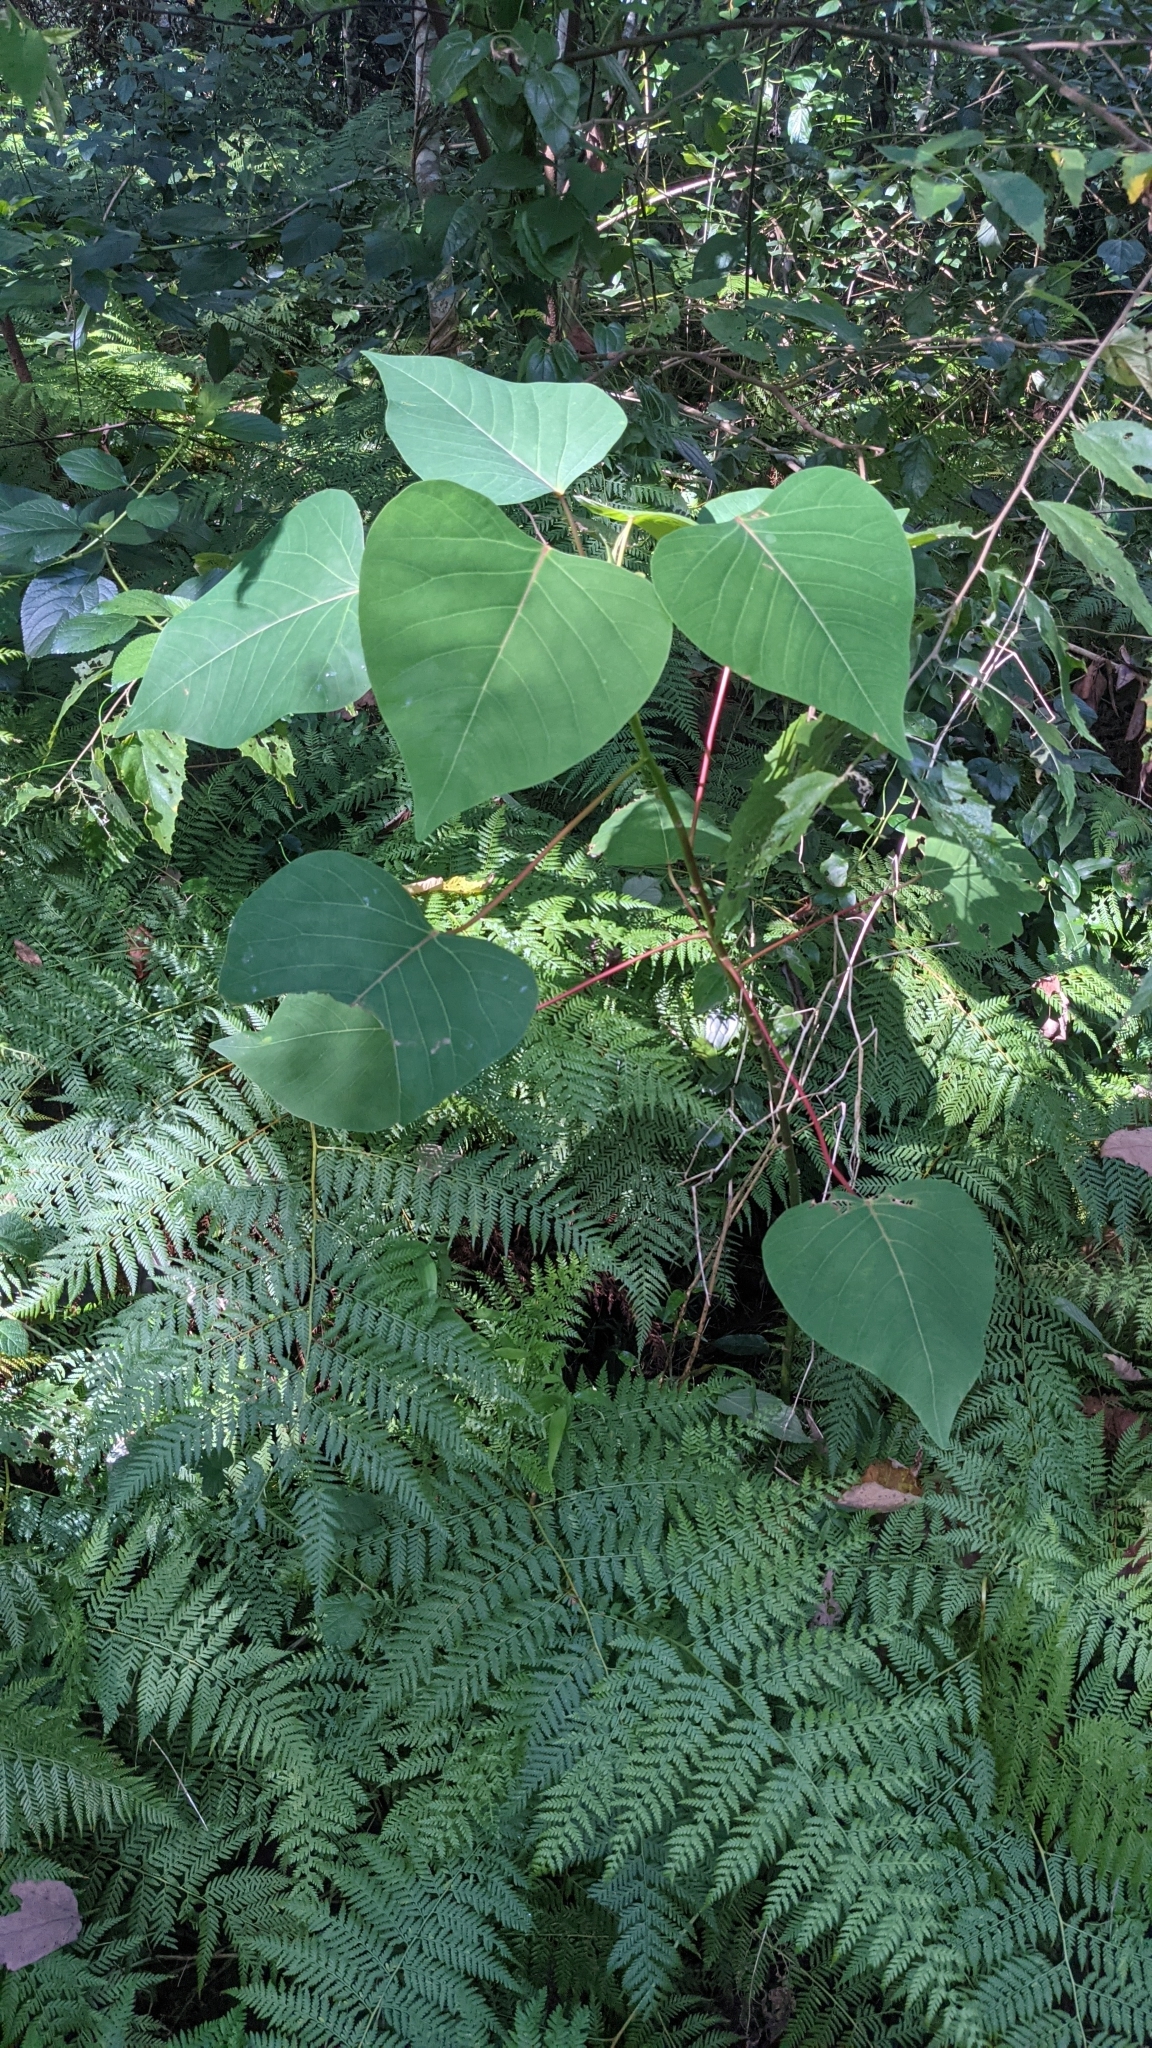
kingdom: Plantae
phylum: Tracheophyta
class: Magnoliopsida
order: Malpighiales
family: Euphorbiaceae
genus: Homalanthus
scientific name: Homalanthus populifolius
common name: Queensland poplar
